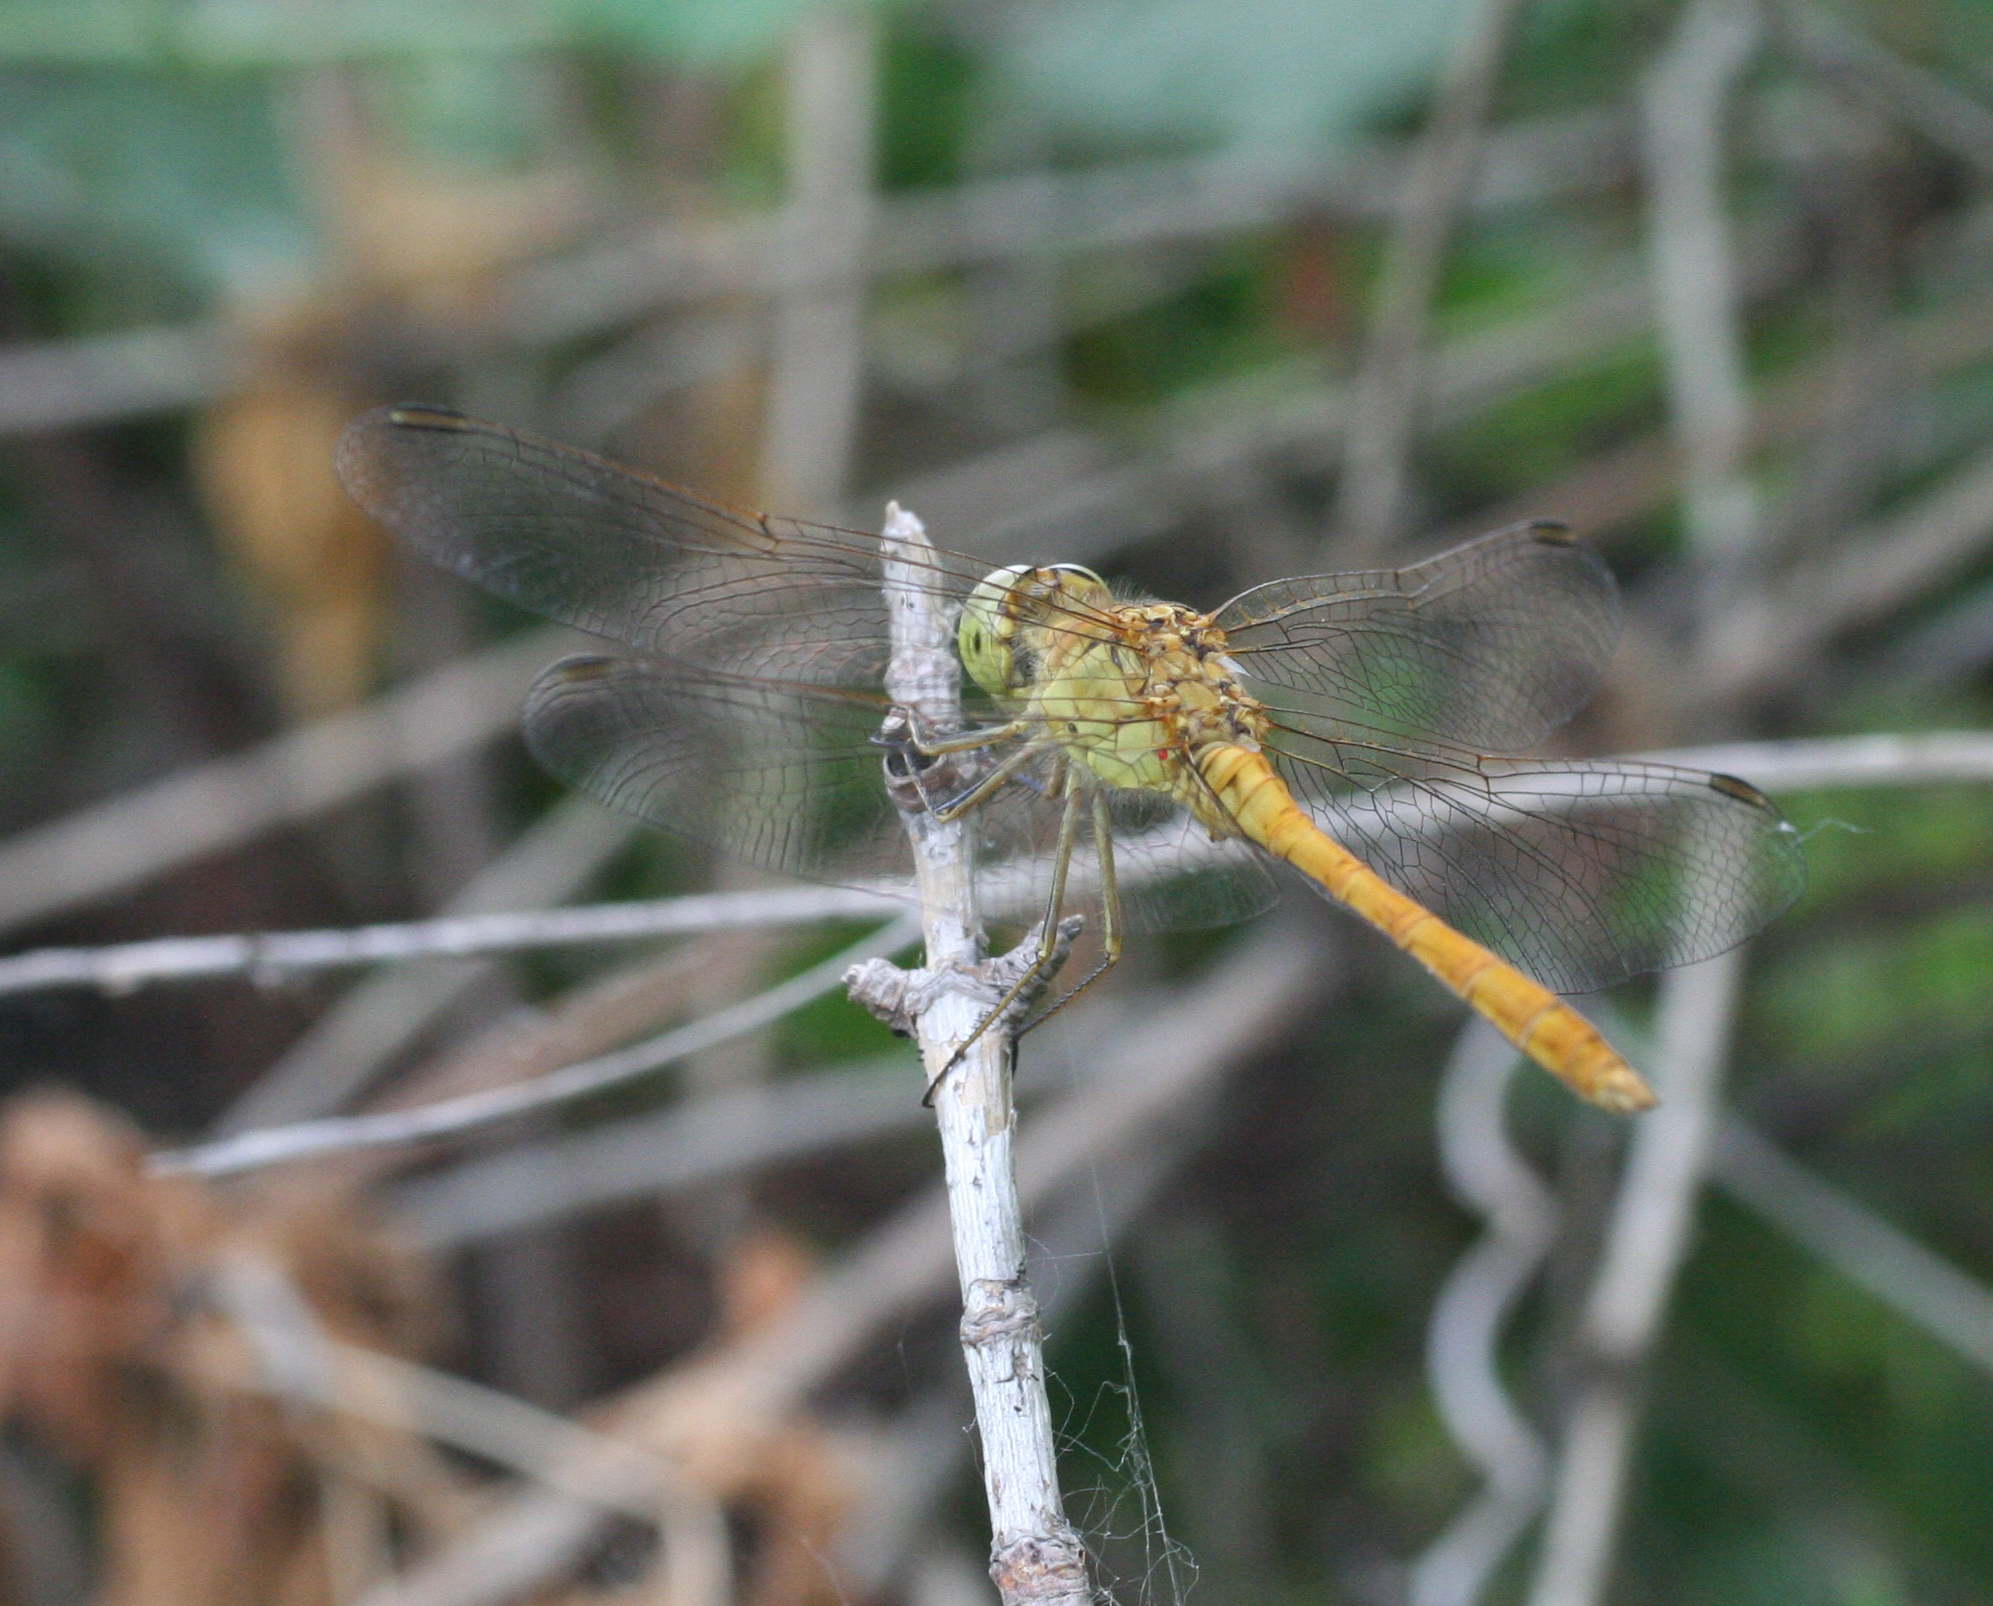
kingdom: Animalia
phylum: Arthropoda
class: Insecta
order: Odonata
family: Libellulidae
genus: Sympetrum
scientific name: Sympetrum meridionale
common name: Southern darter
